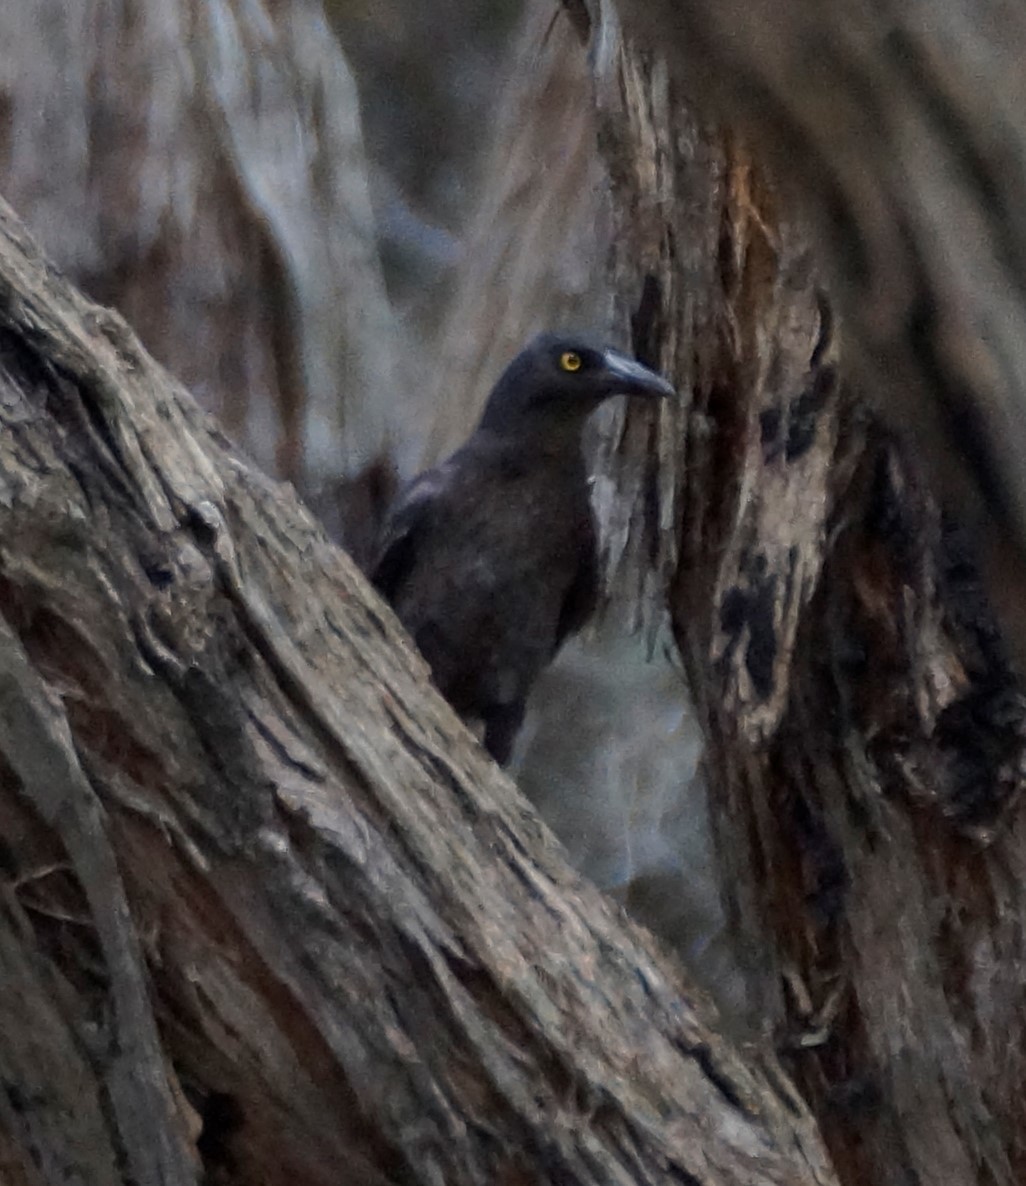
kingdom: Animalia
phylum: Chordata
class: Aves
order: Passeriformes
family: Cracticidae
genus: Strepera
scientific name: Strepera graculina
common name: Pied currawong
